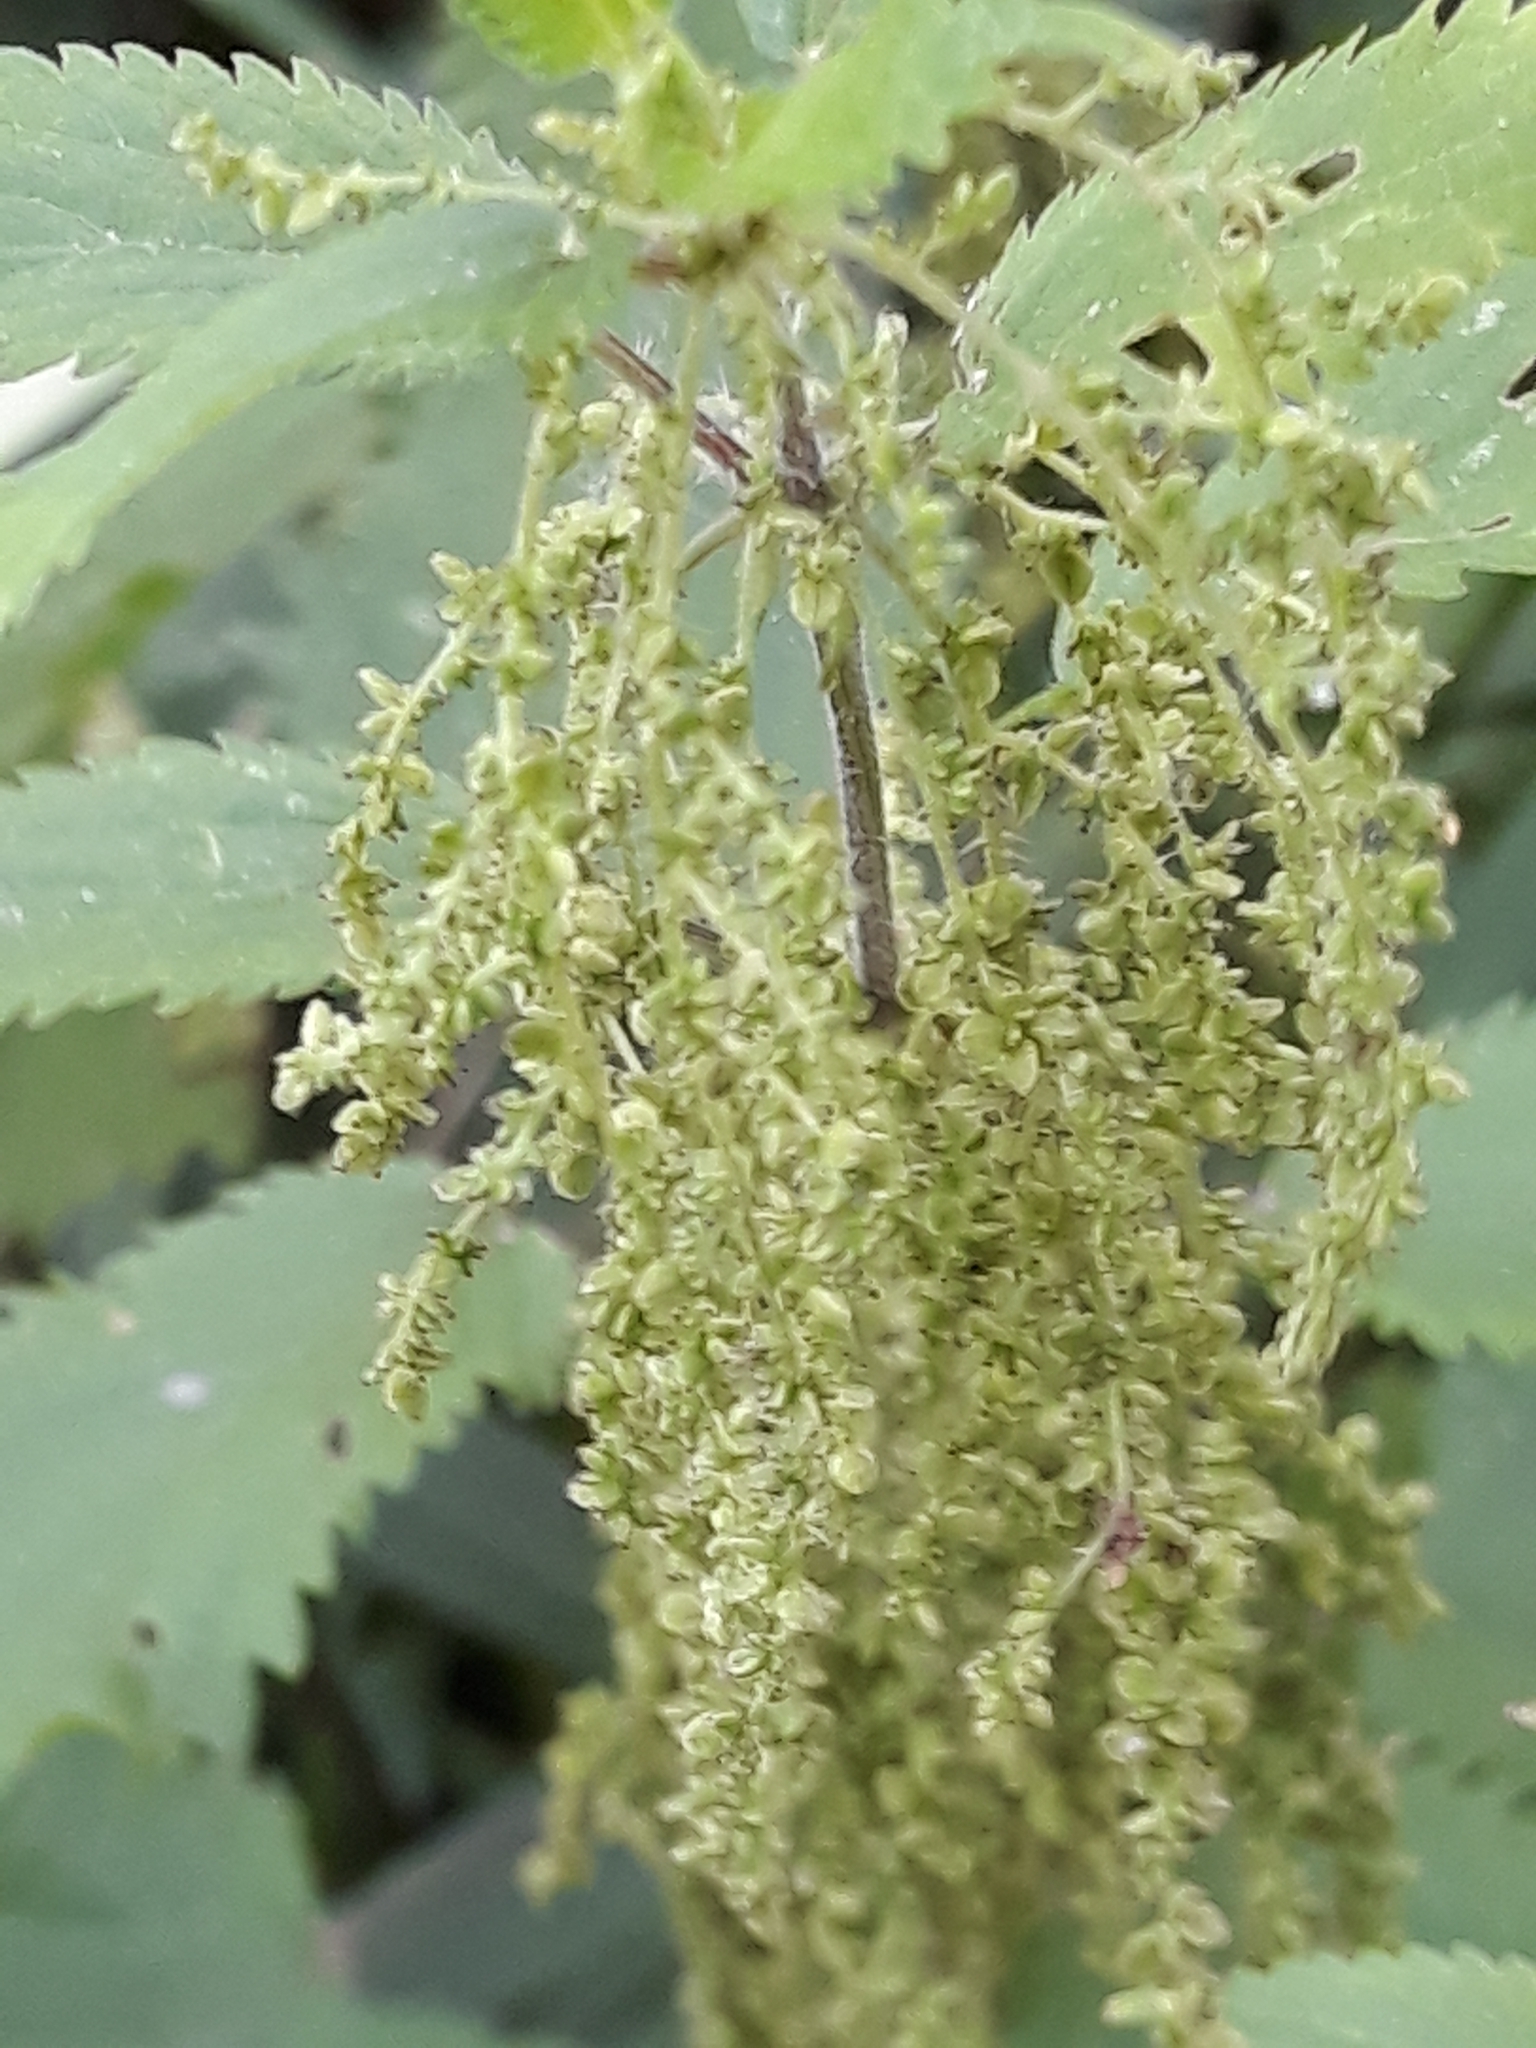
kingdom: Plantae
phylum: Tracheophyta
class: Magnoliopsida
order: Rosales
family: Urticaceae
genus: Urtica
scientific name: Urtica dioica
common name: Common nettle
